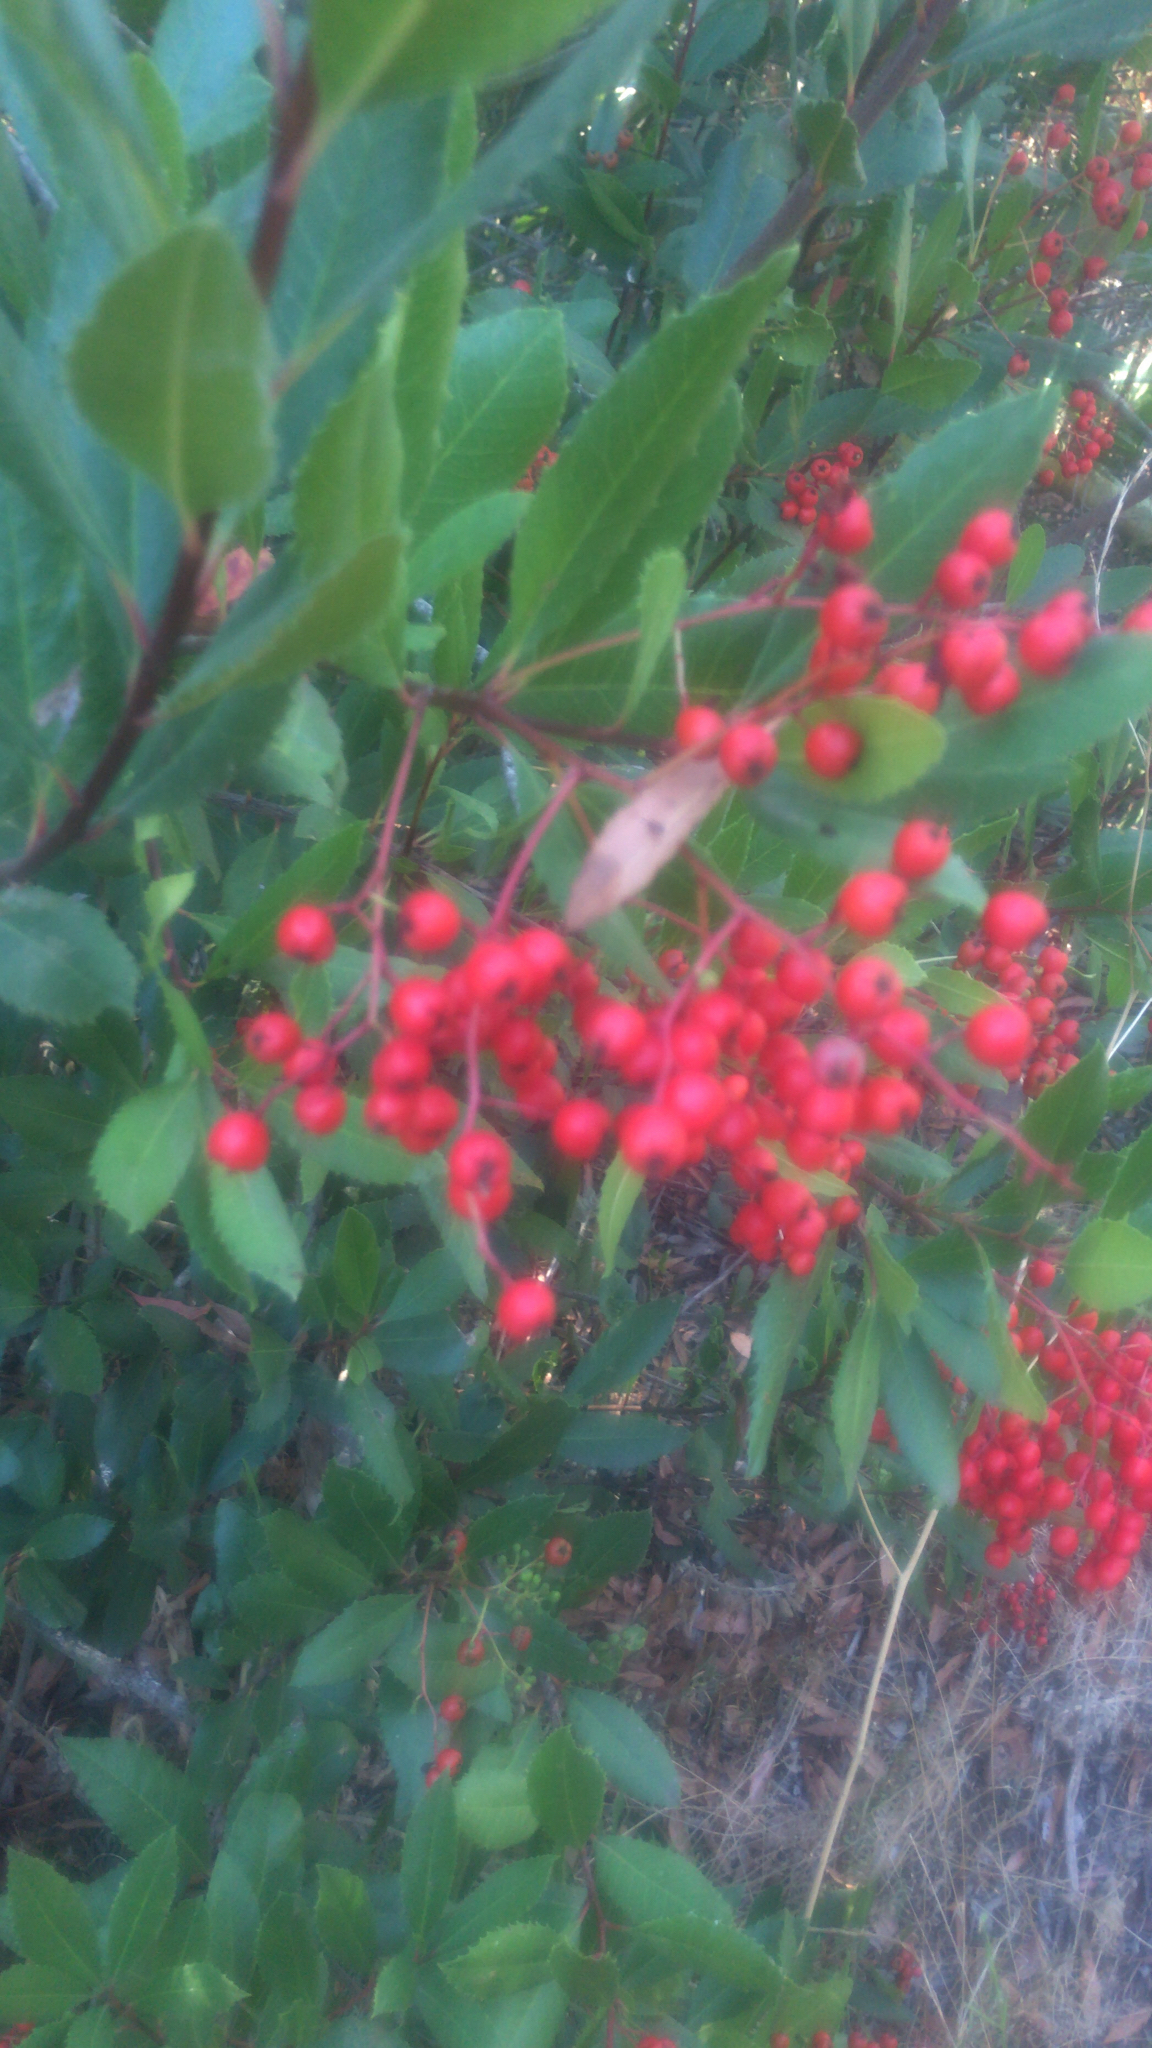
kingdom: Plantae
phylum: Tracheophyta
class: Magnoliopsida
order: Rosales
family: Rosaceae
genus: Heteromeles
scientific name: Heteromeles arbutifolia
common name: California-holly
